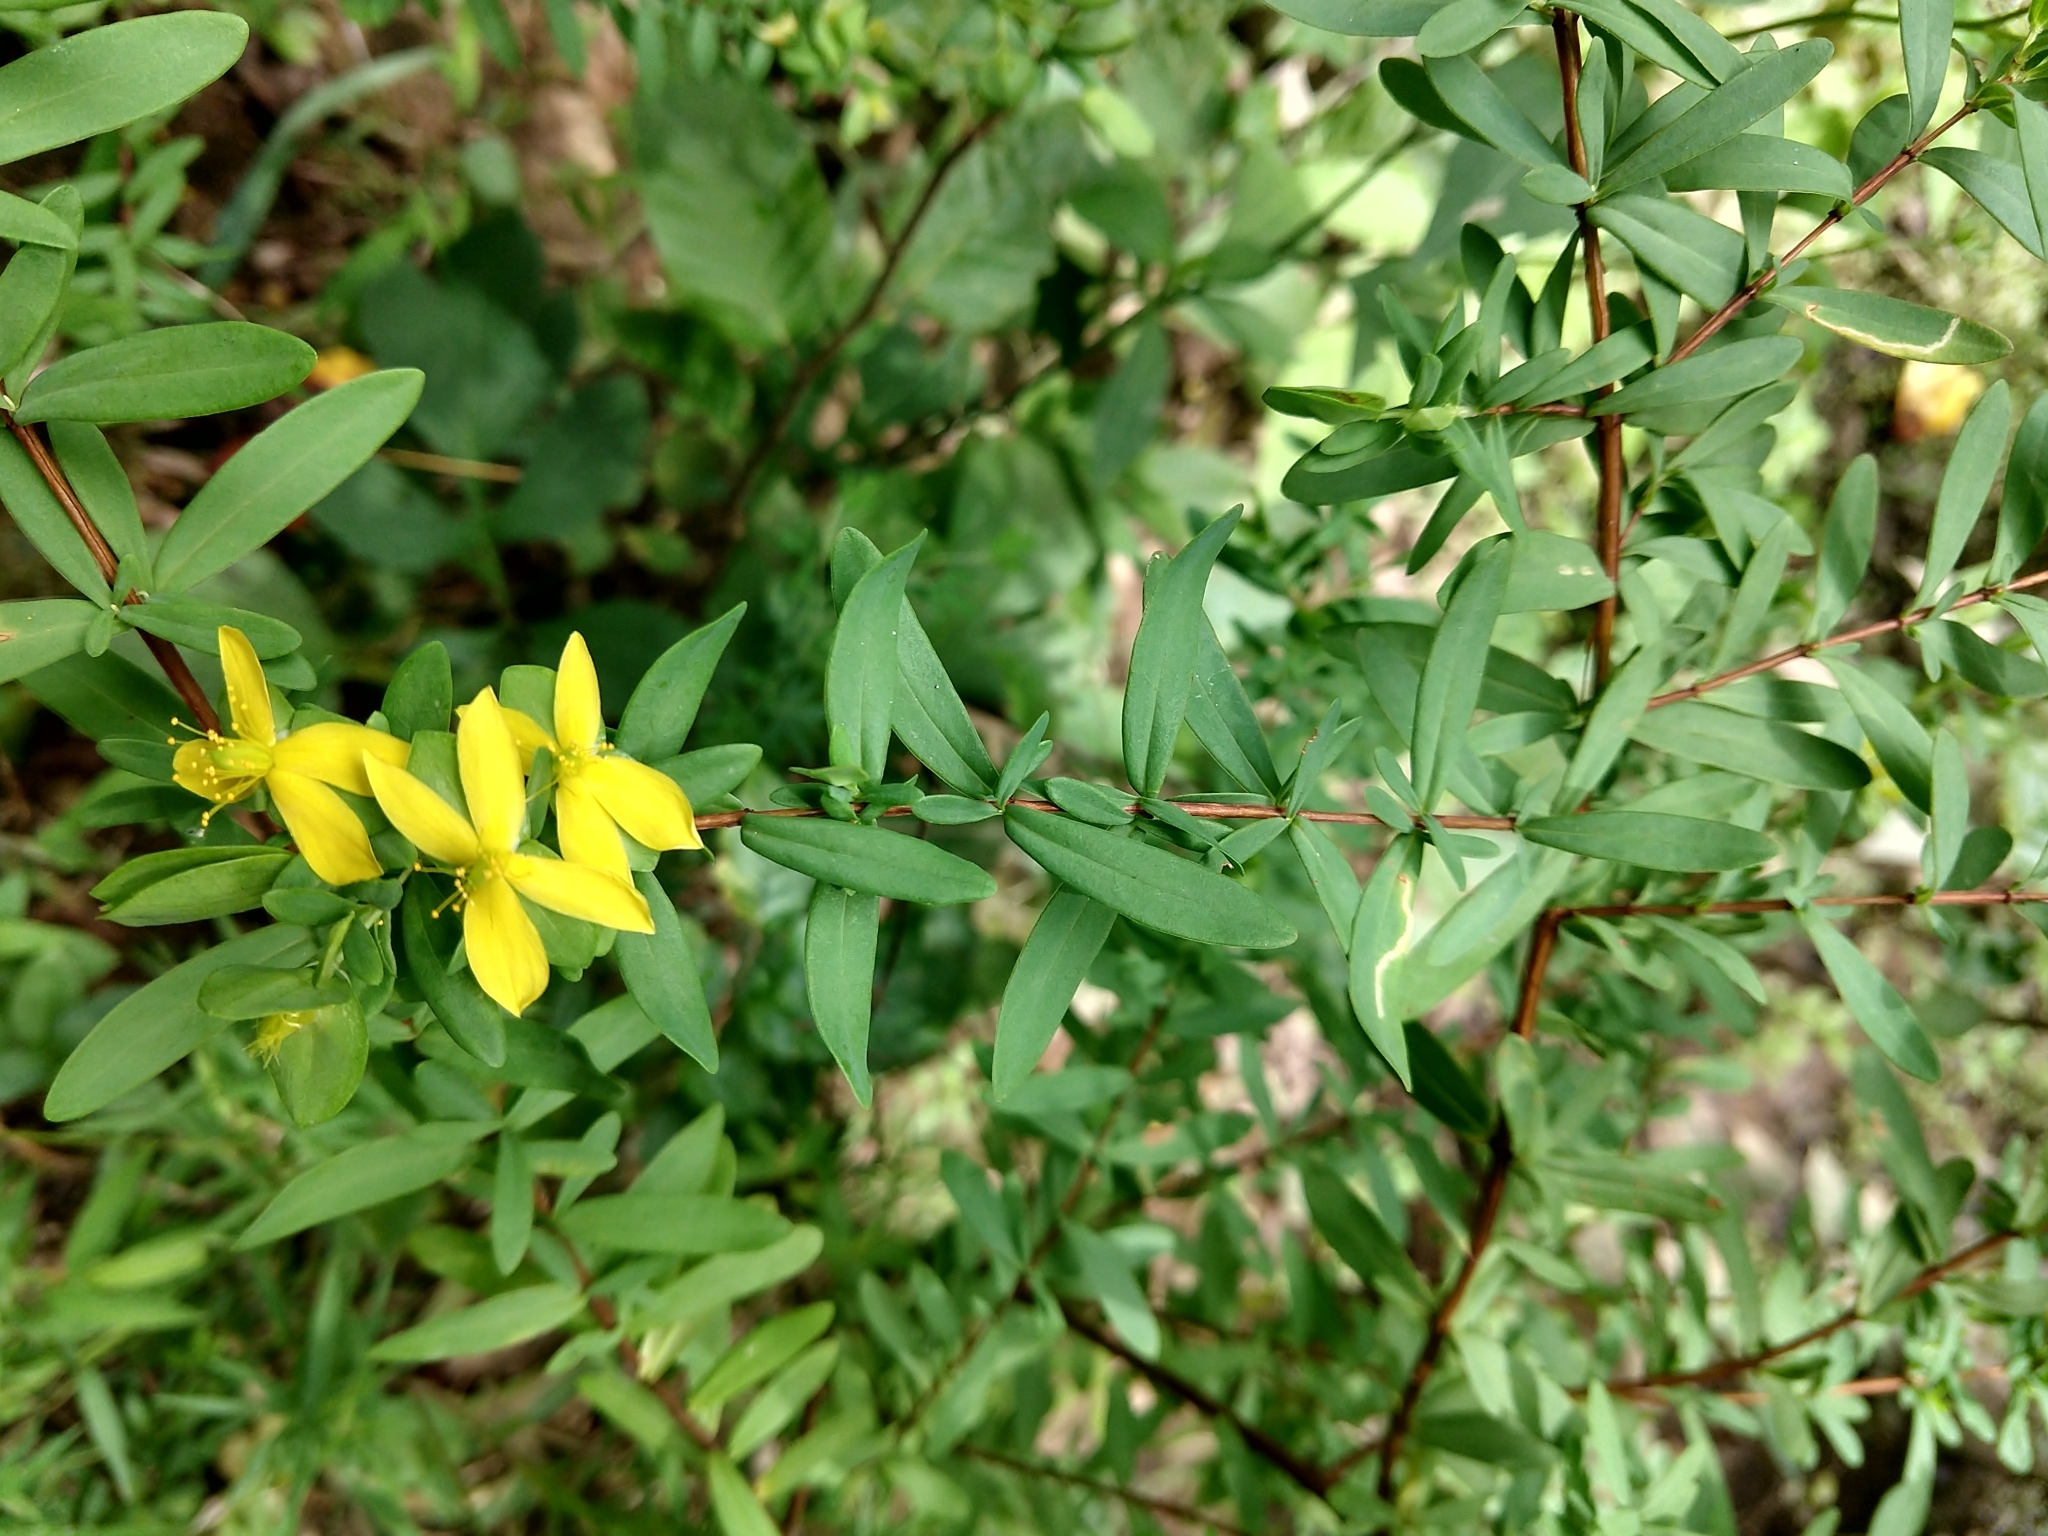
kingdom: Plantae
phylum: Tracheophyta
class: Magnoliopsida
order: Malpighiales
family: Hypericaceae
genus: Hypericum
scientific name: Hypericum hypericoides
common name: St. andrew's cross
